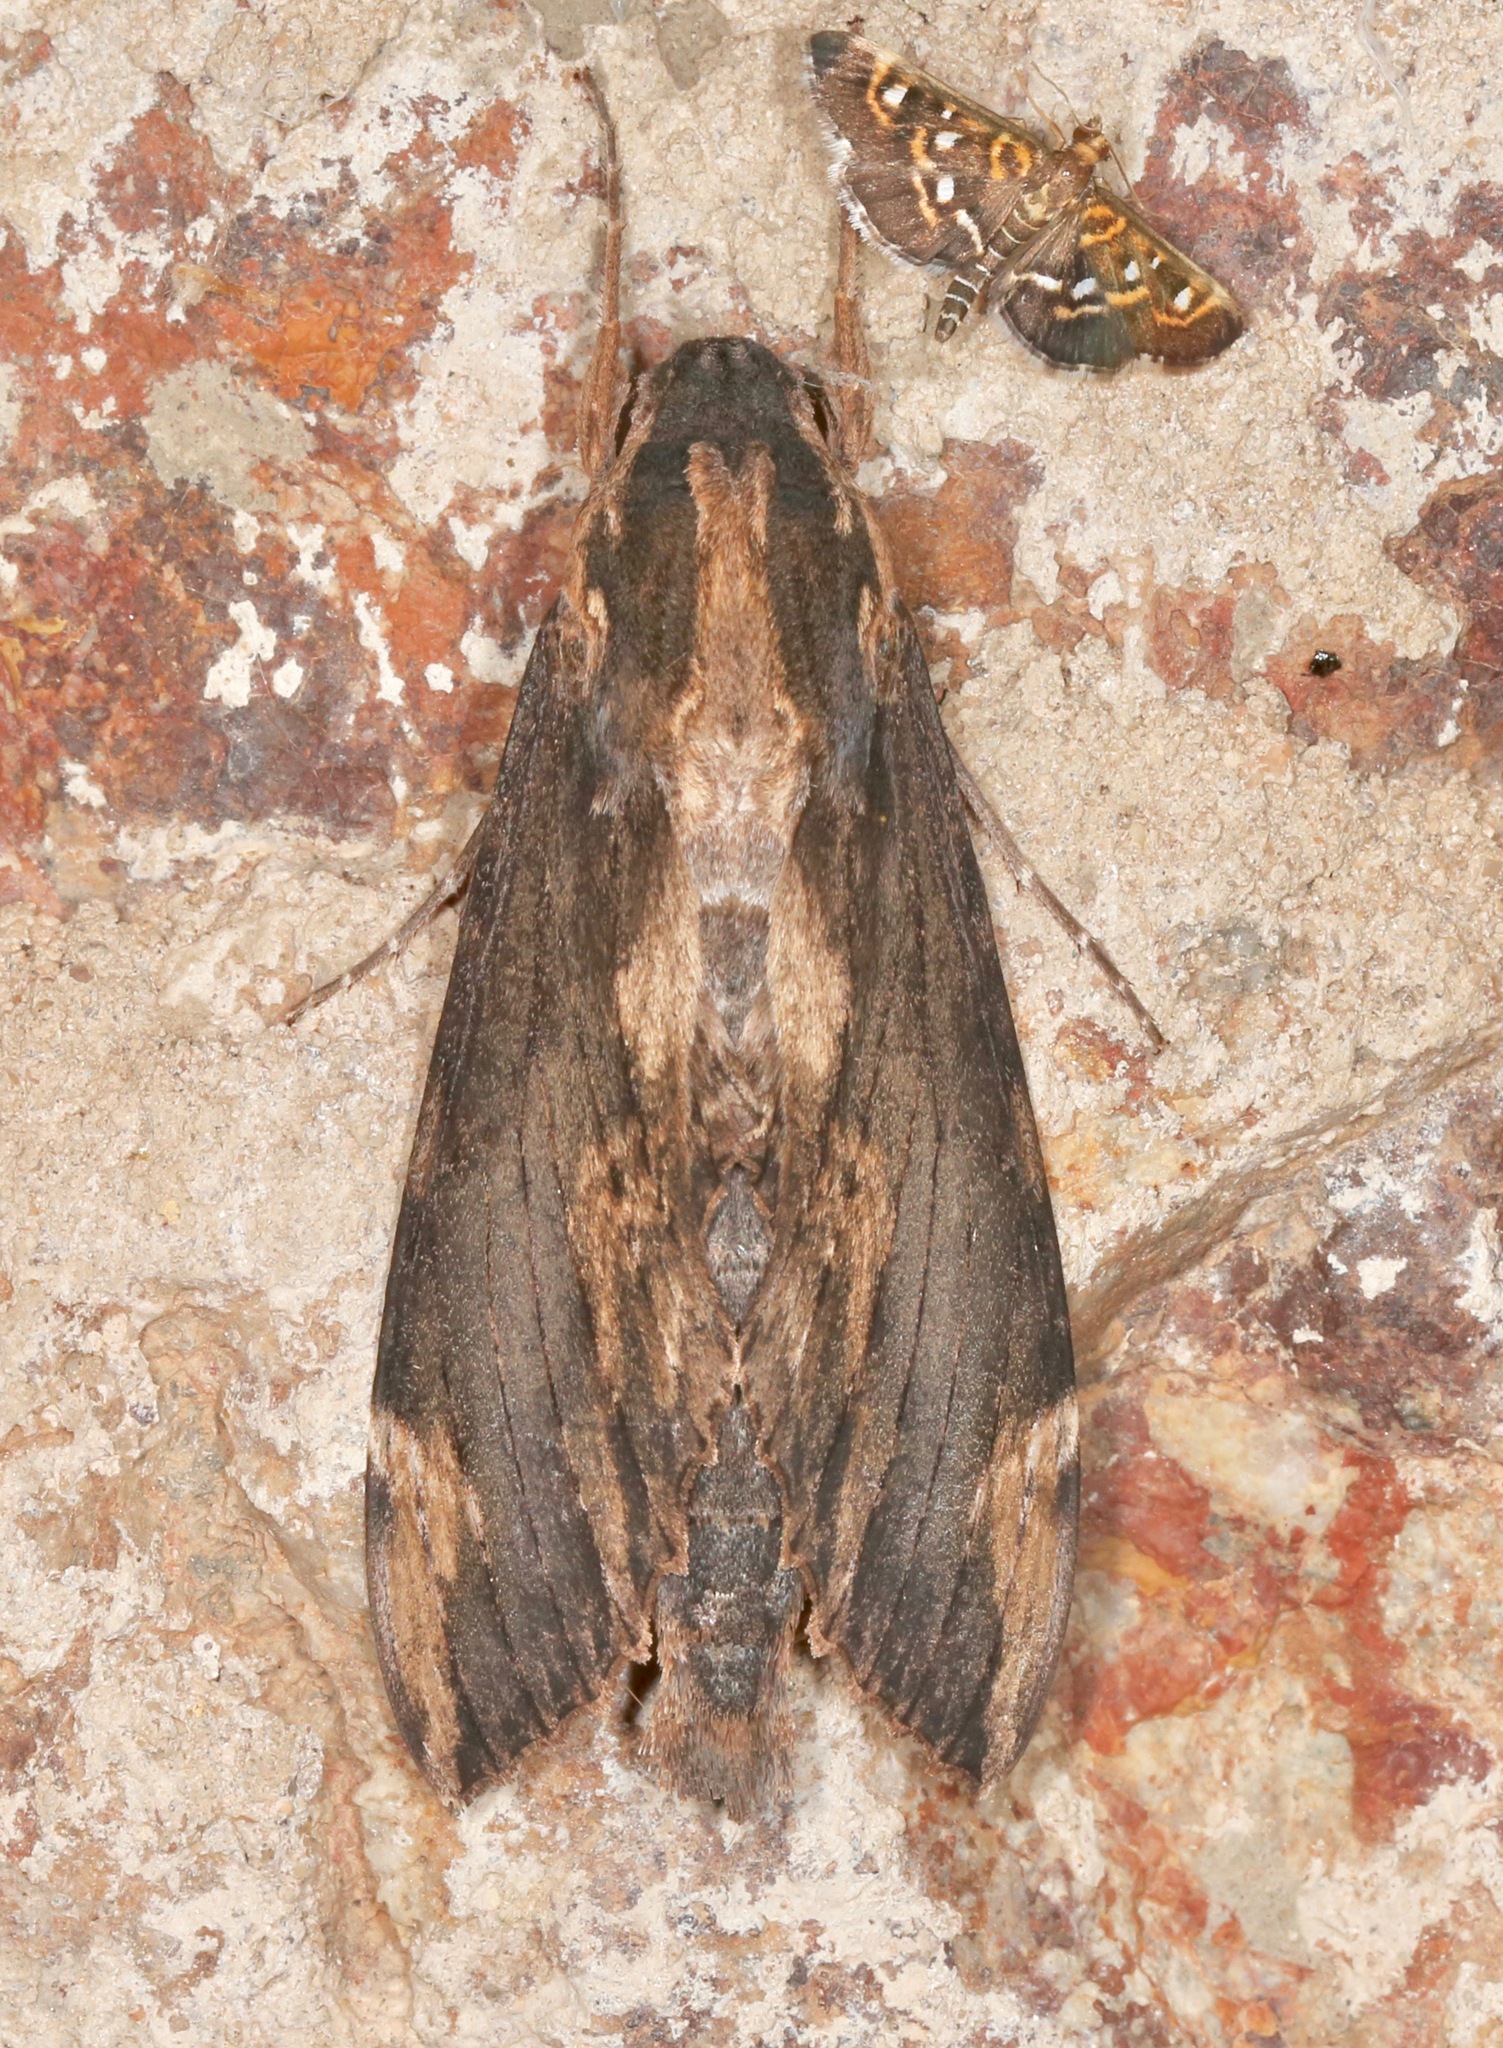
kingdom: Animalia
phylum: Arthropoda
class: Insecta
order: Lepidoptera
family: Sphingidae
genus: Erinnyis
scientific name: Erinnyis lassauxi
